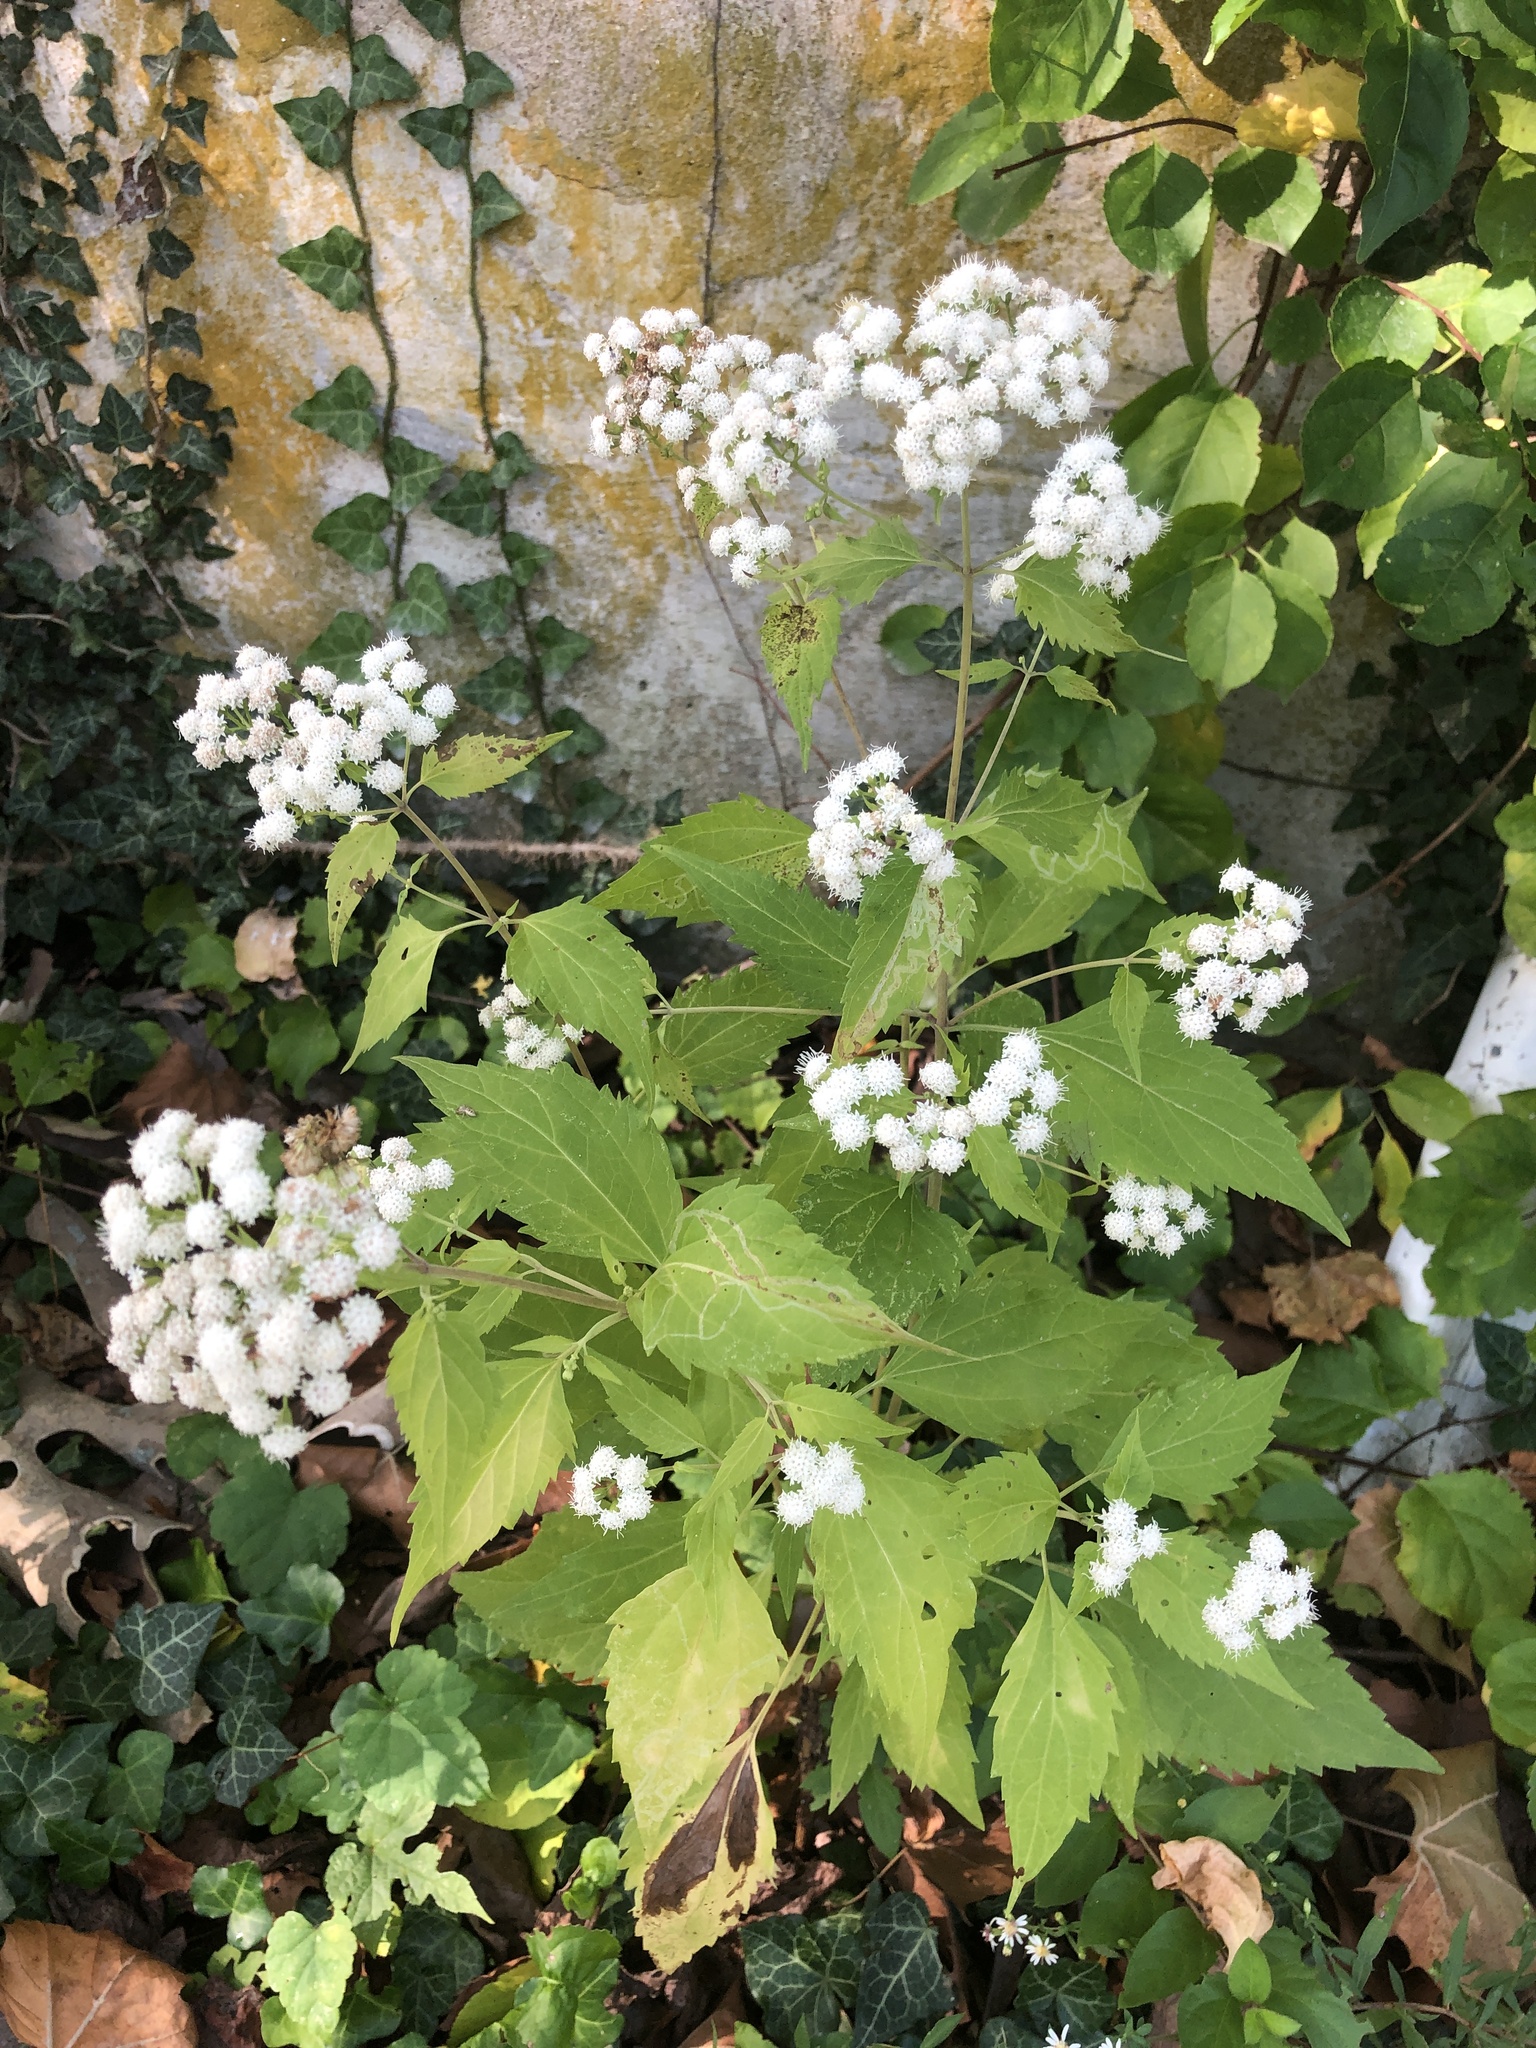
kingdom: Plantae
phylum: Tracheophyta
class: Magnoliopsida
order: Asterales
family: Asteraceae
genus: Ageratina
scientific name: Ageratina altissima
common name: White snakeroot
